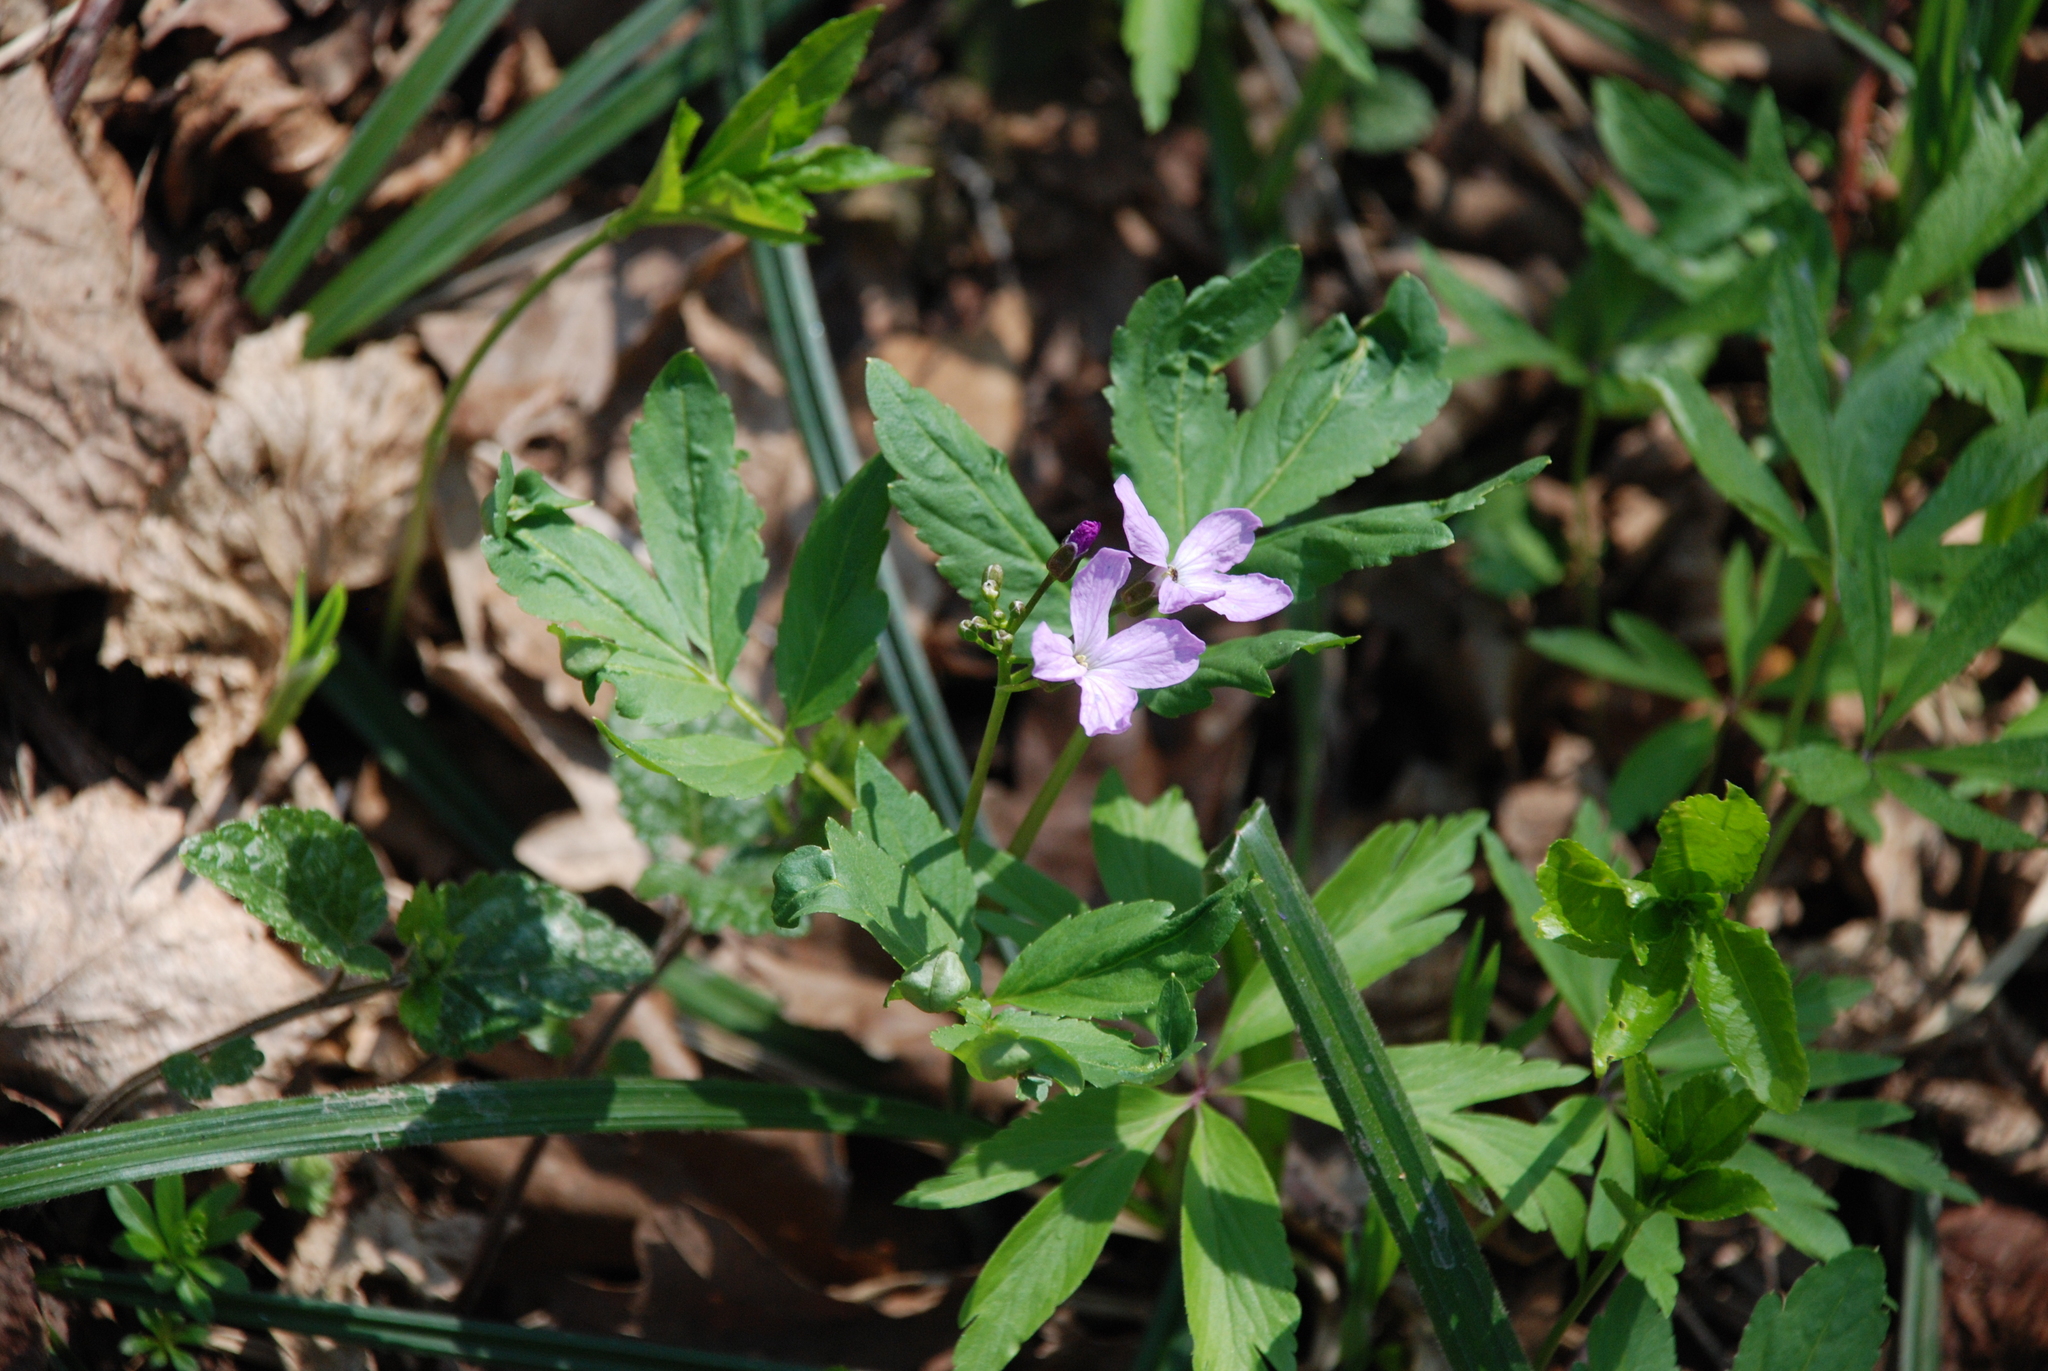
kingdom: Plantae
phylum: Tracheophyta
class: Magnoliopsida
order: Brassicales
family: Brassicaceae
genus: Cardamine
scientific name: Cardamine quinquefolia
